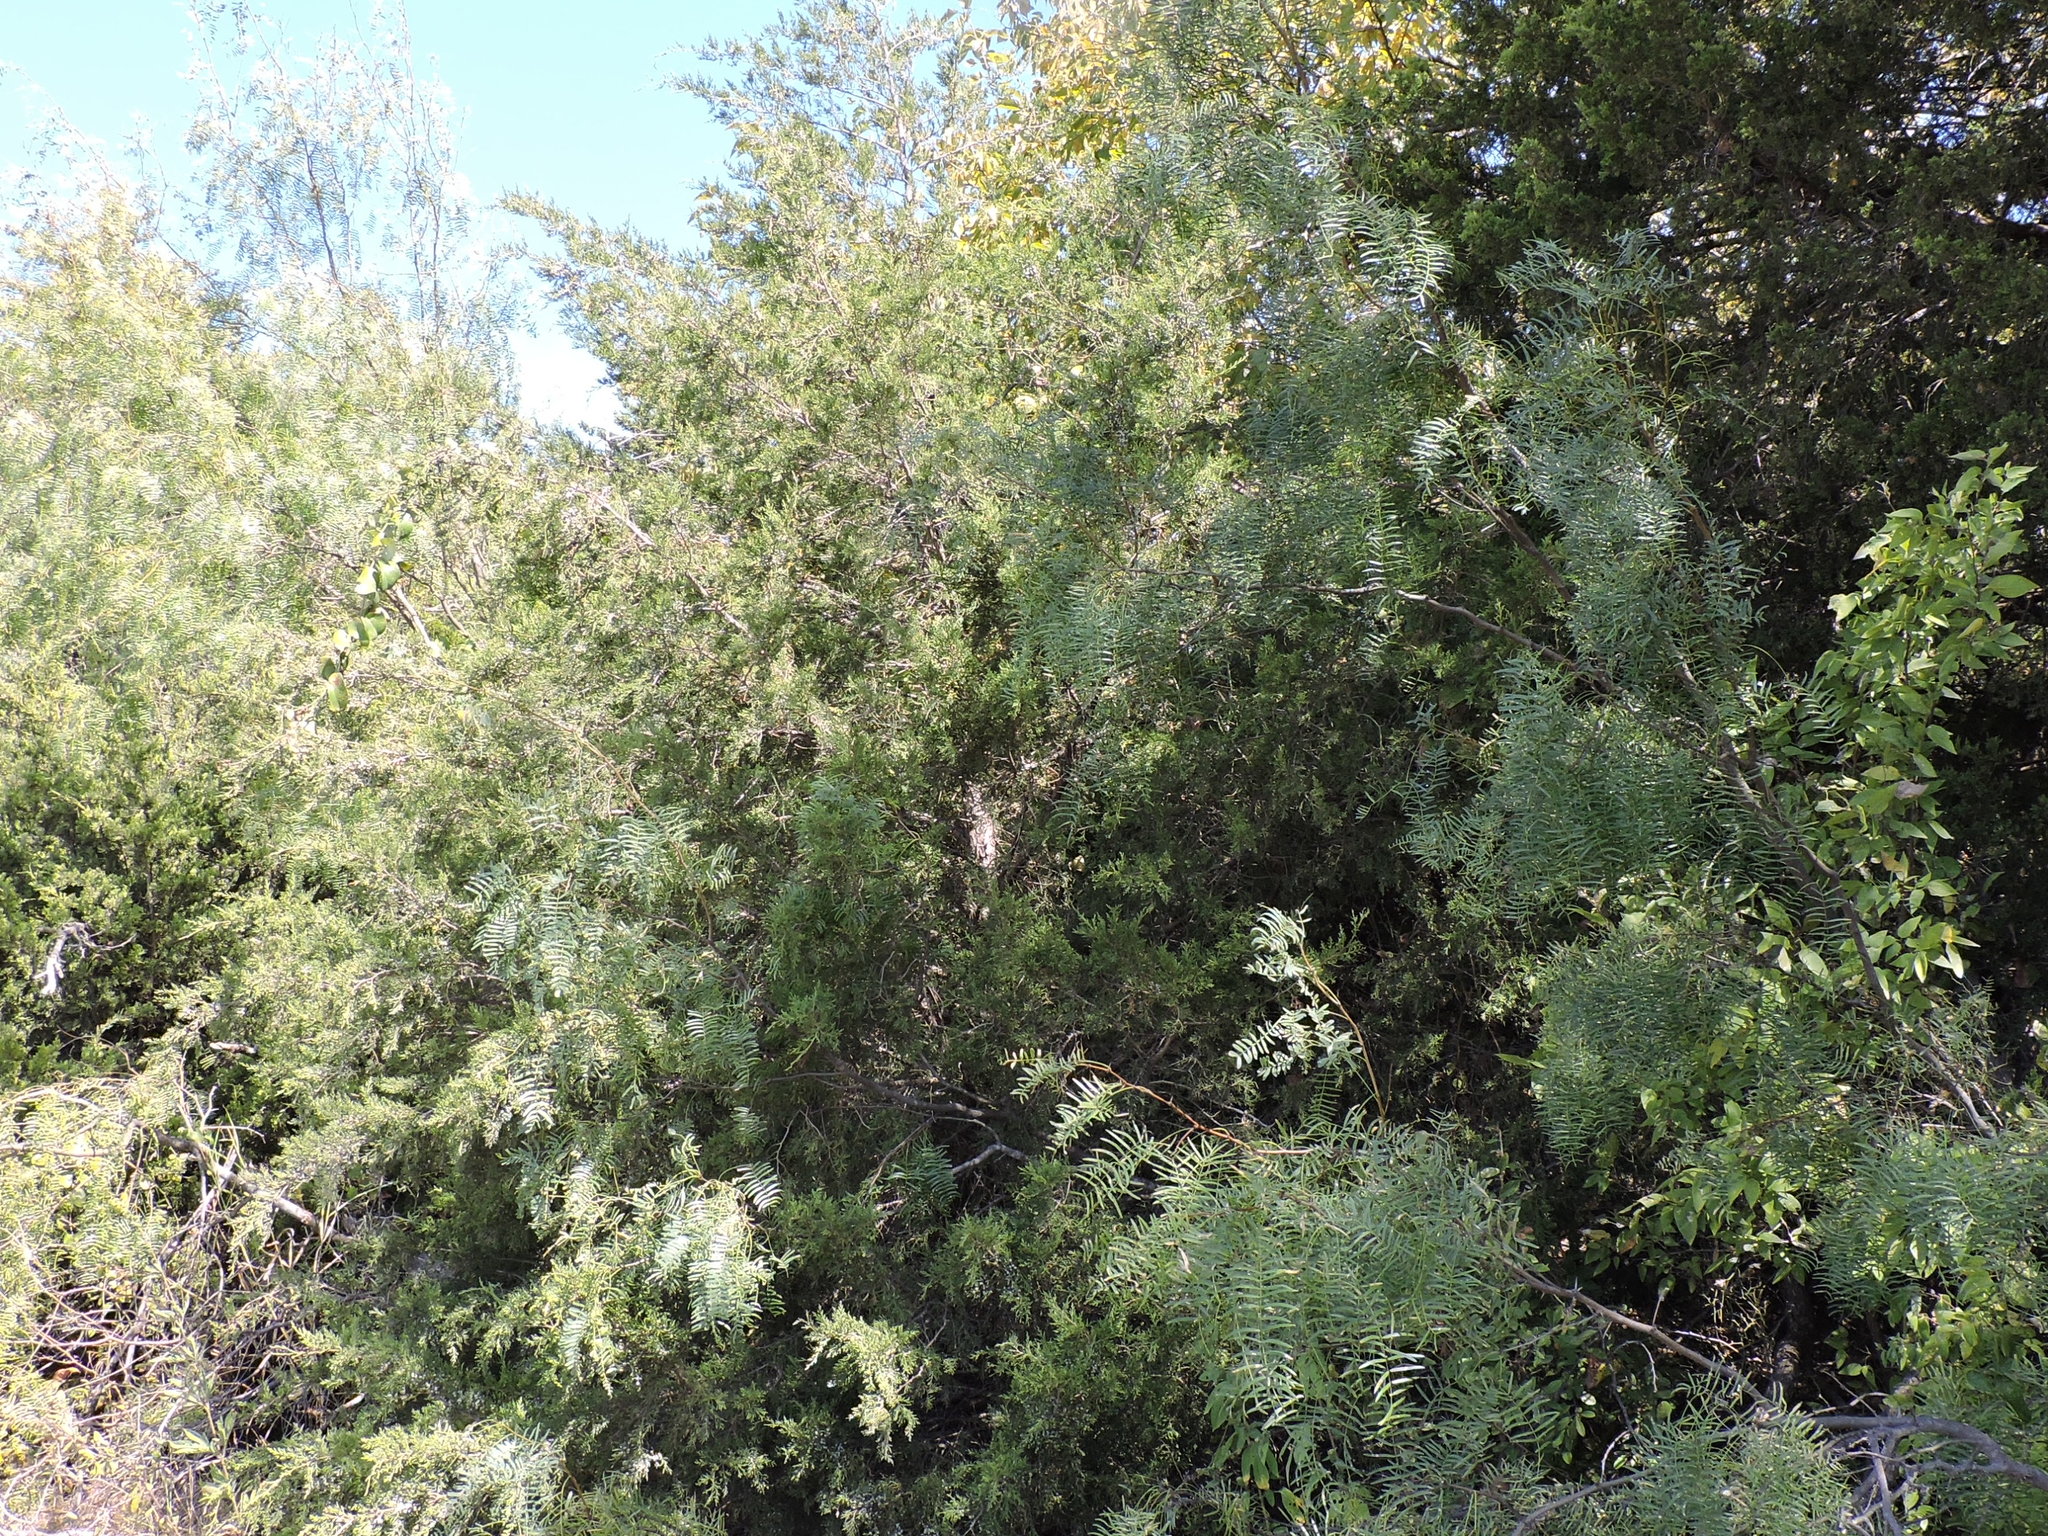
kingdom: Plantae
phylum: Tracheophyta
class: Pinopsida
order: Pinales
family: Cupressaceae
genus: Juniperus
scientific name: Juniperus virginiana
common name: Red juniper
